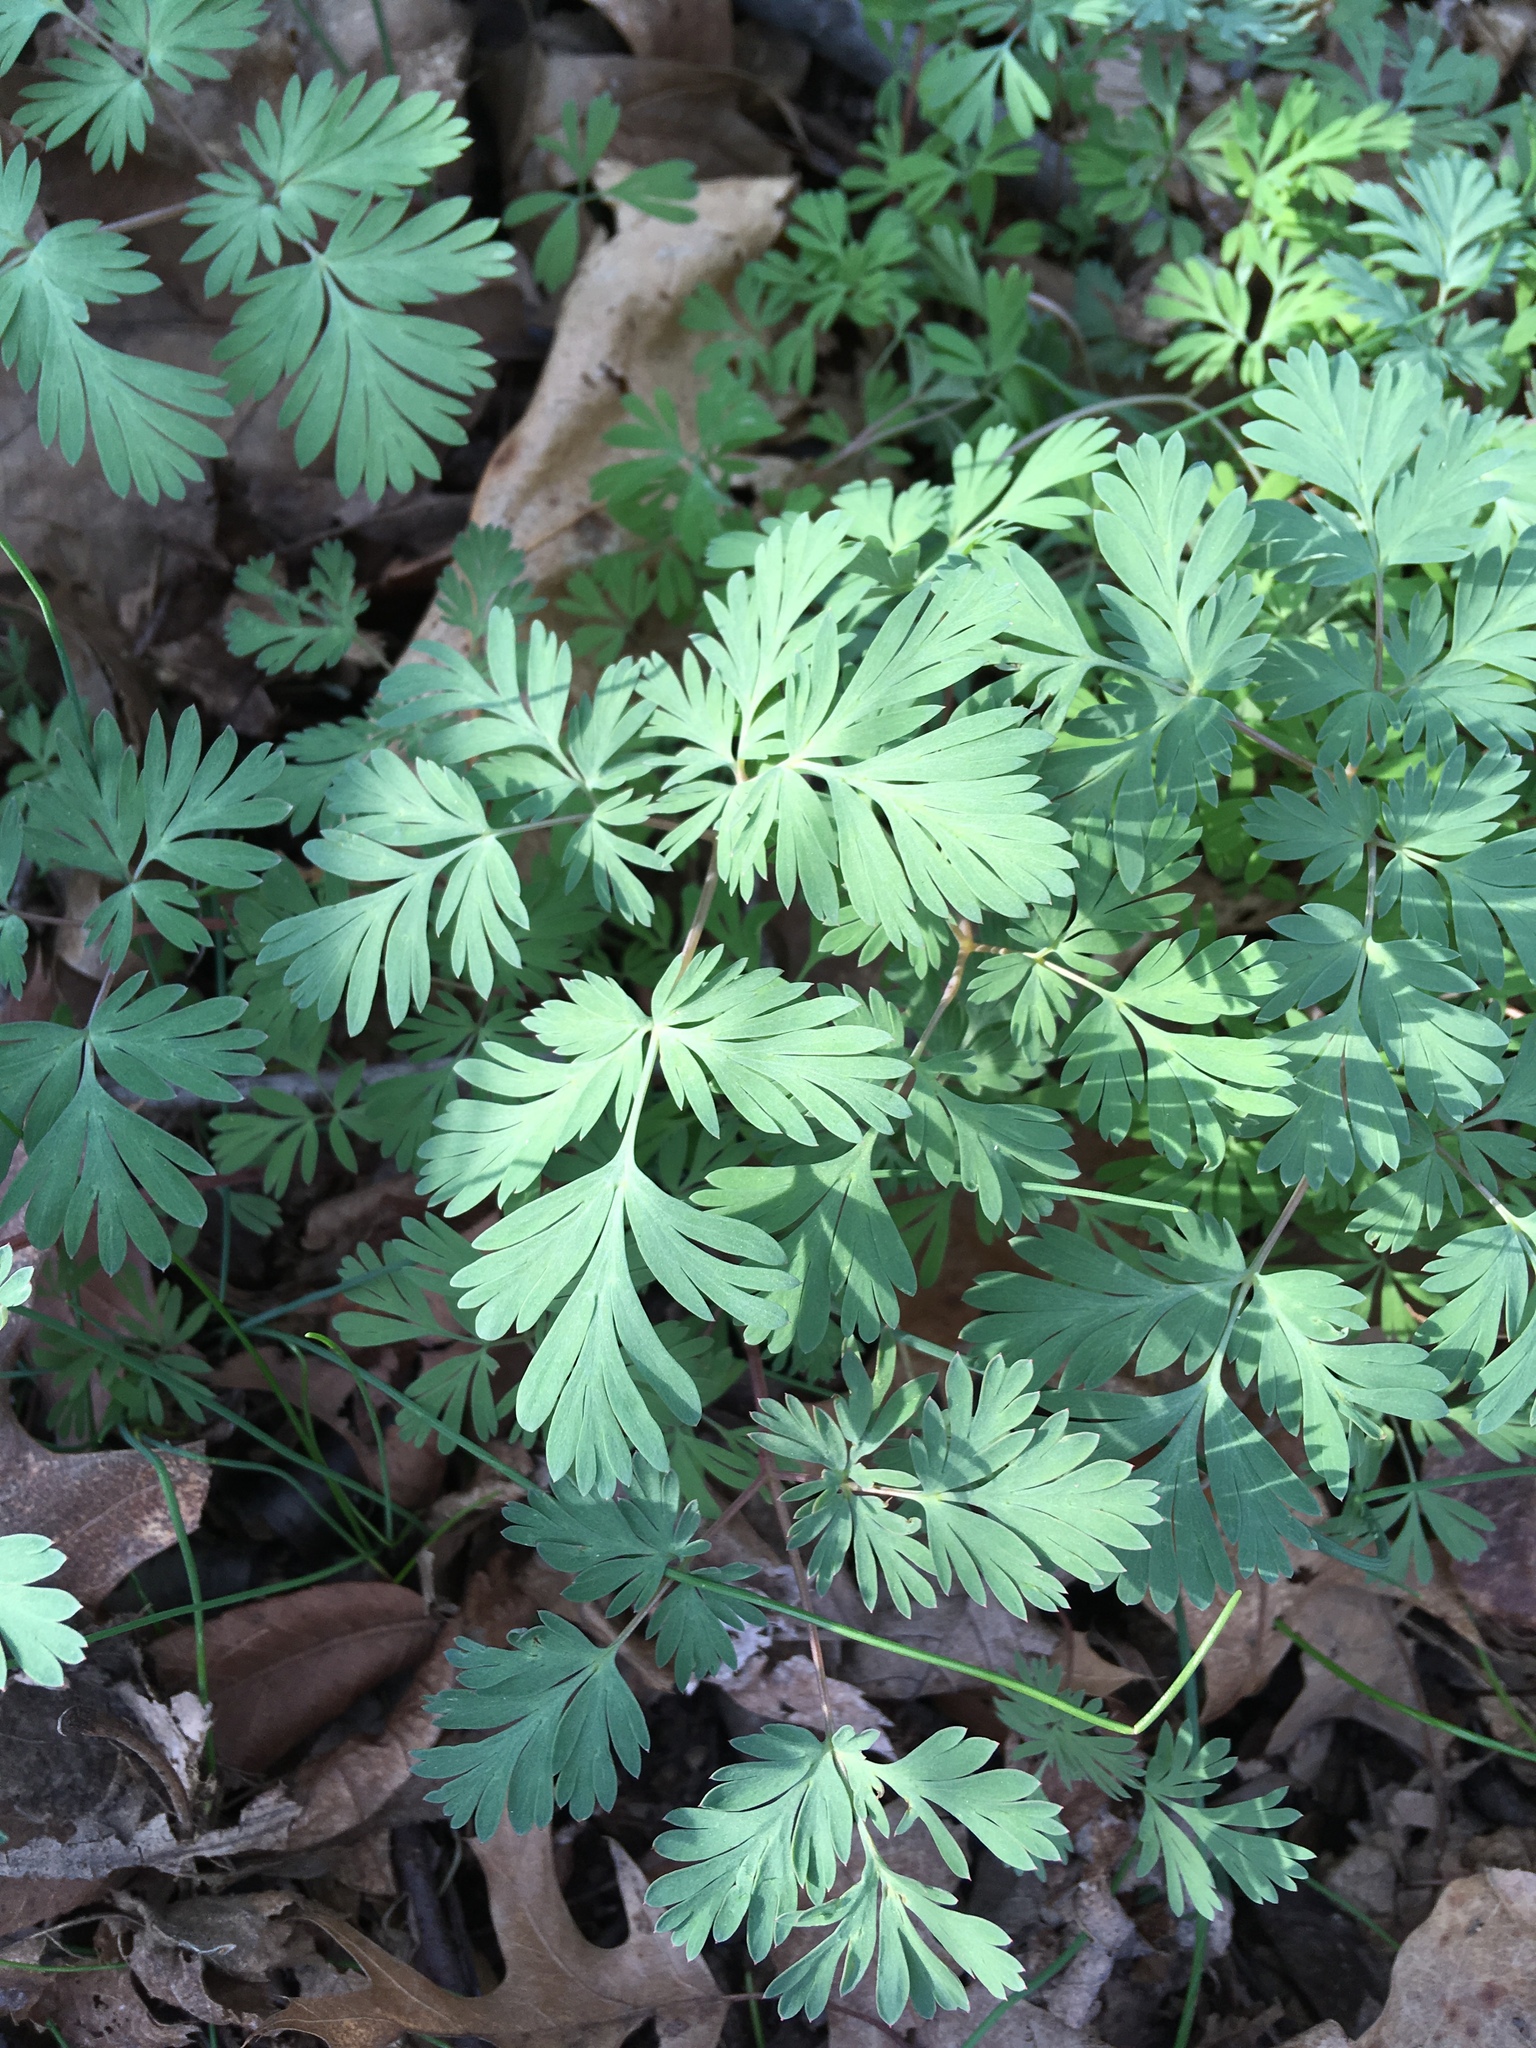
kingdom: Plantae
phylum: Tracheophyta
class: Magnoliopsida
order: Ranunculales
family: Papaveraceae
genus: Dicentra
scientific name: Dicentra cucullaria
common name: Dutchman's breeches
